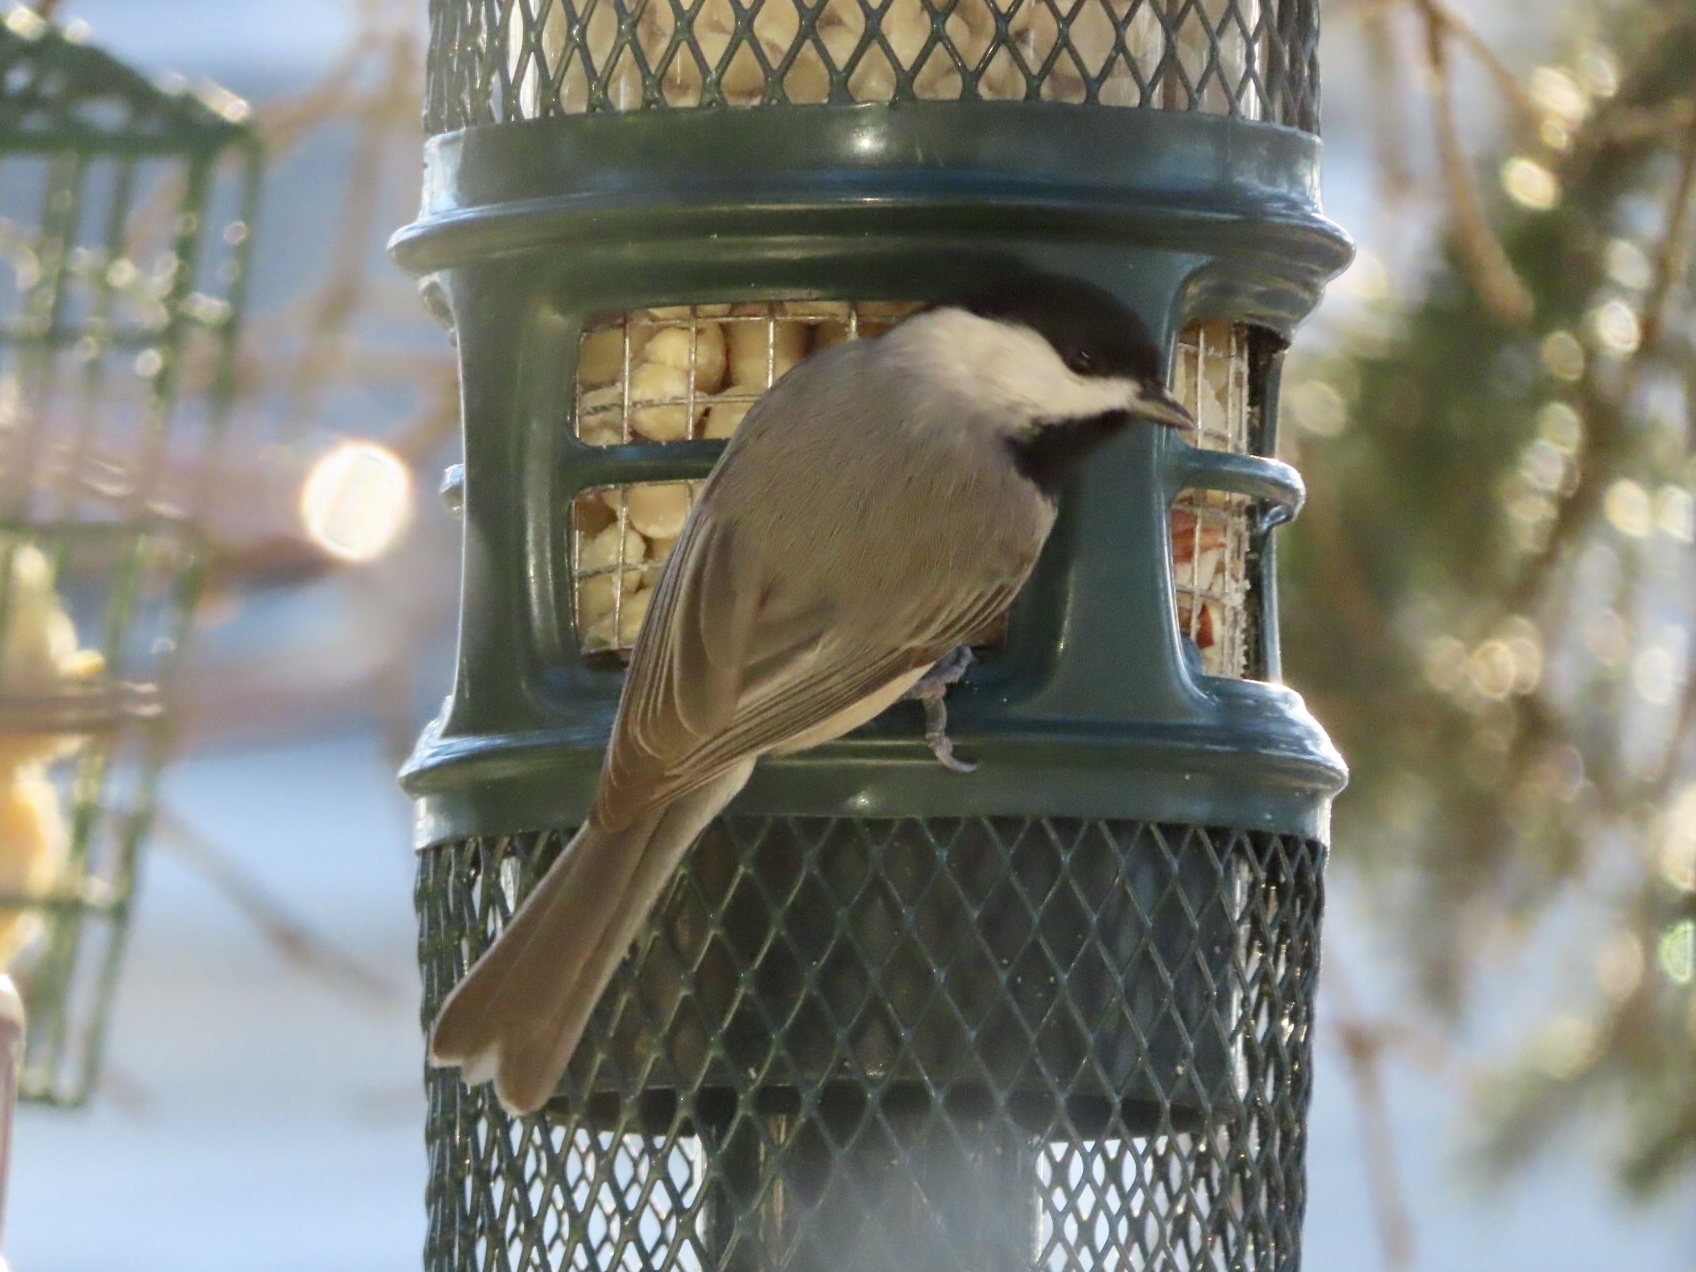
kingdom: Animalia
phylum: Chordata
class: Aves
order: Passeriformes
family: Paridae
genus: Poecile
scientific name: Poecile carolinensis
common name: Carolina chickadee
